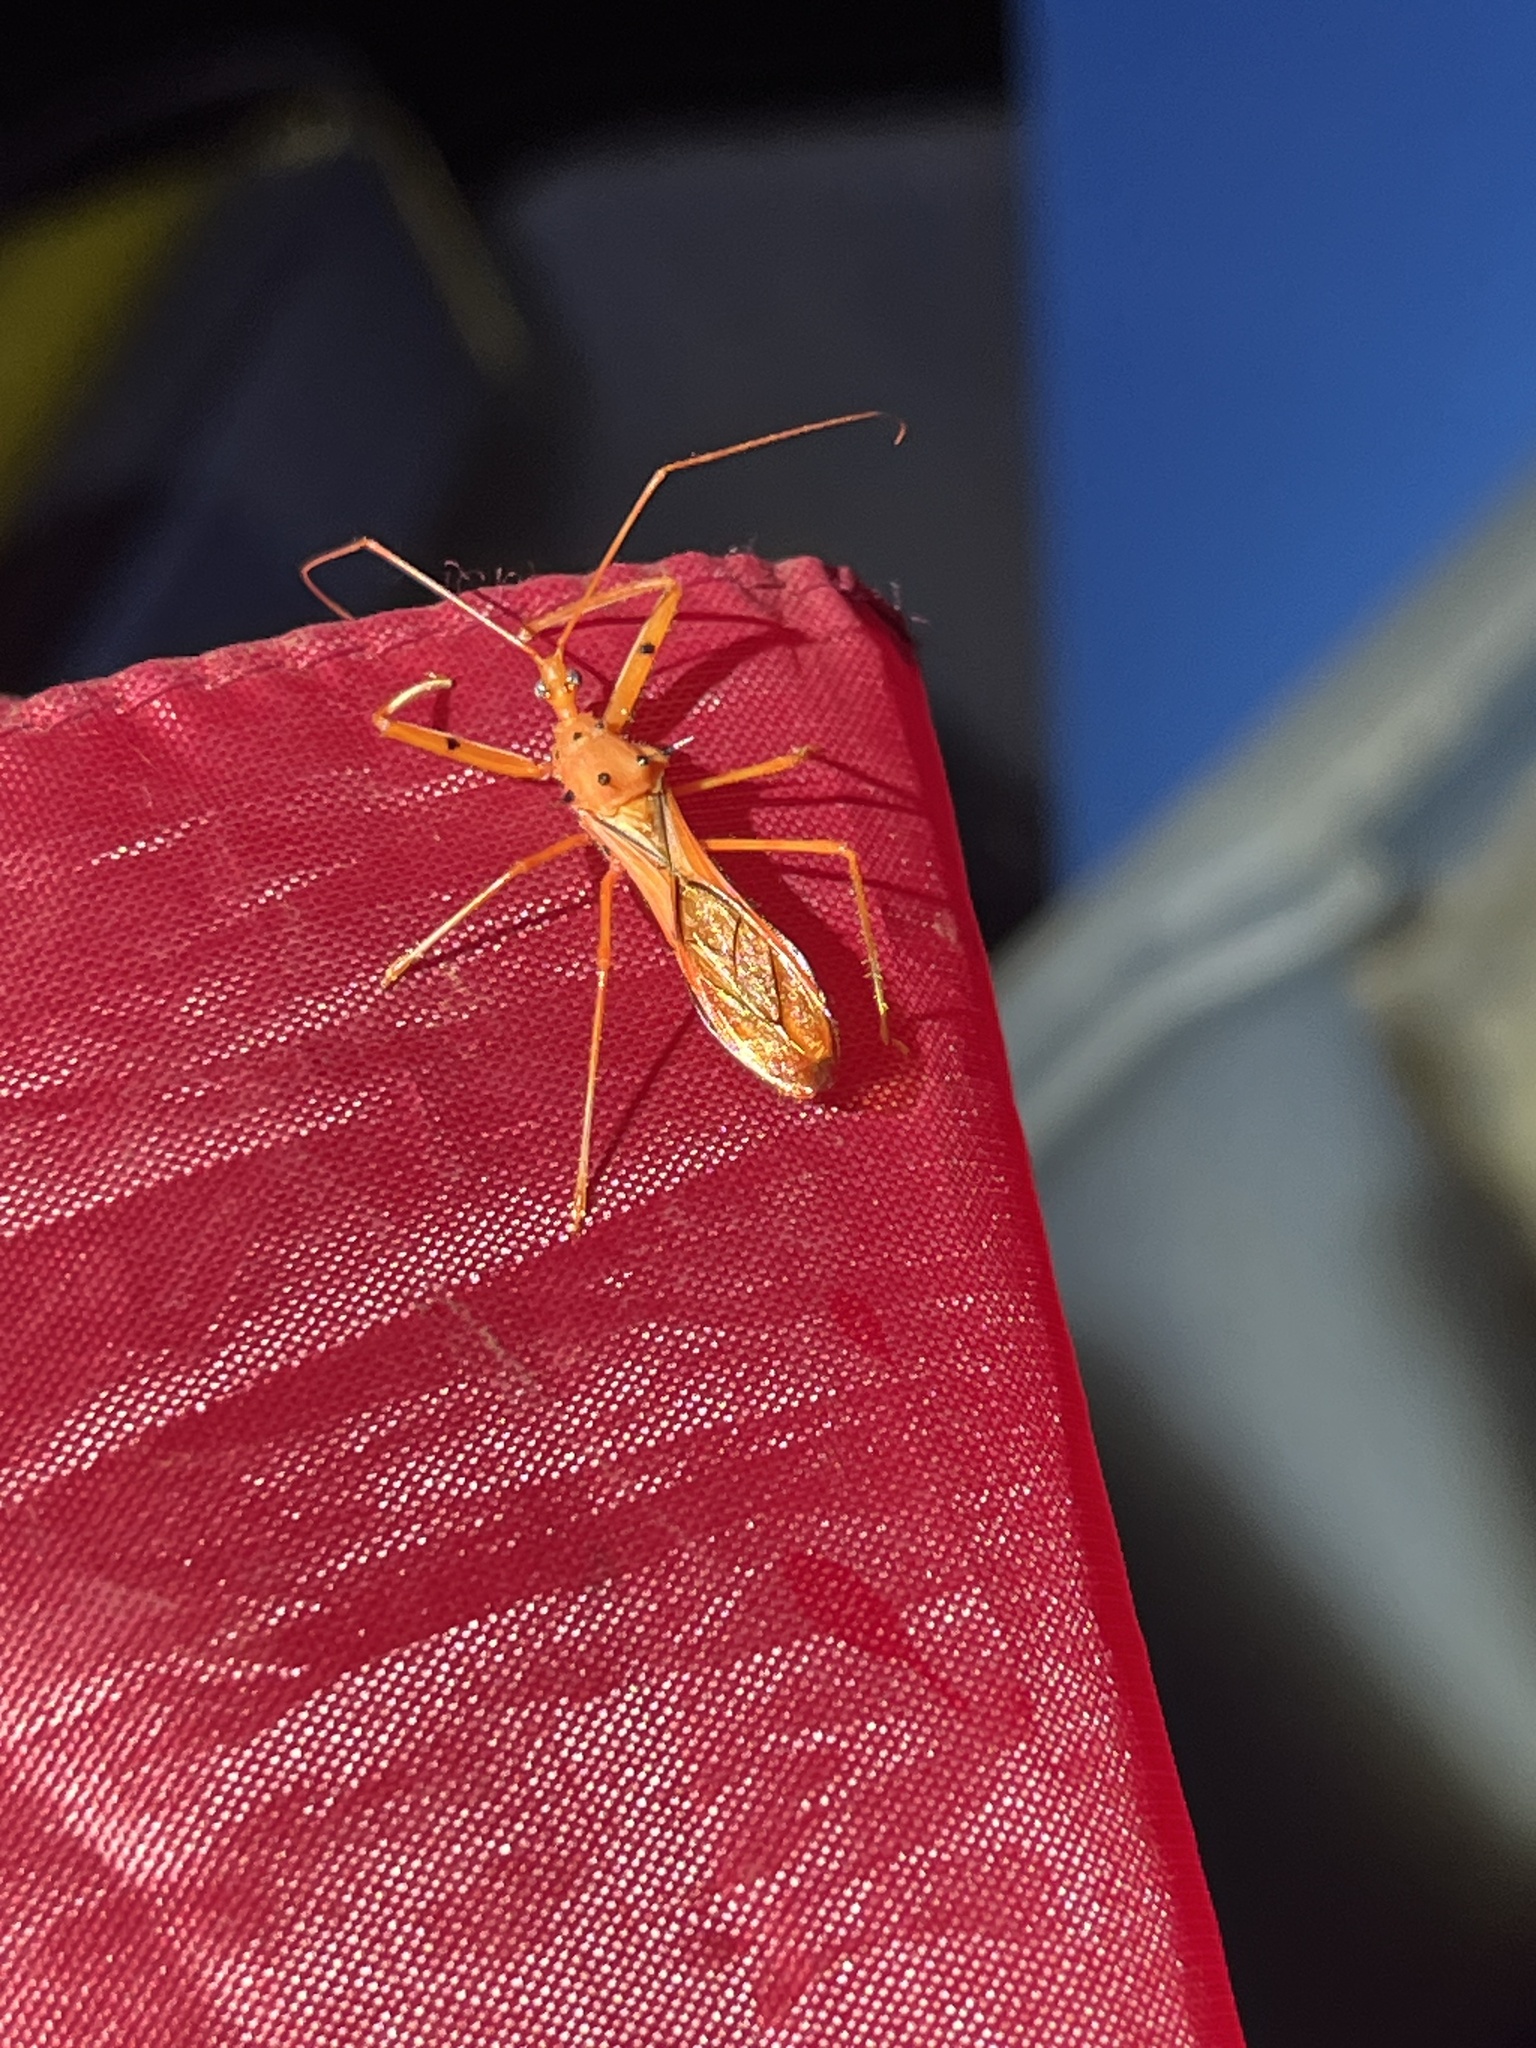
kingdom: Animalia
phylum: Arthropoda
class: Insecta
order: Hemiptera
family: Reduviidae
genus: Heza
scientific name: Heza aurantia
